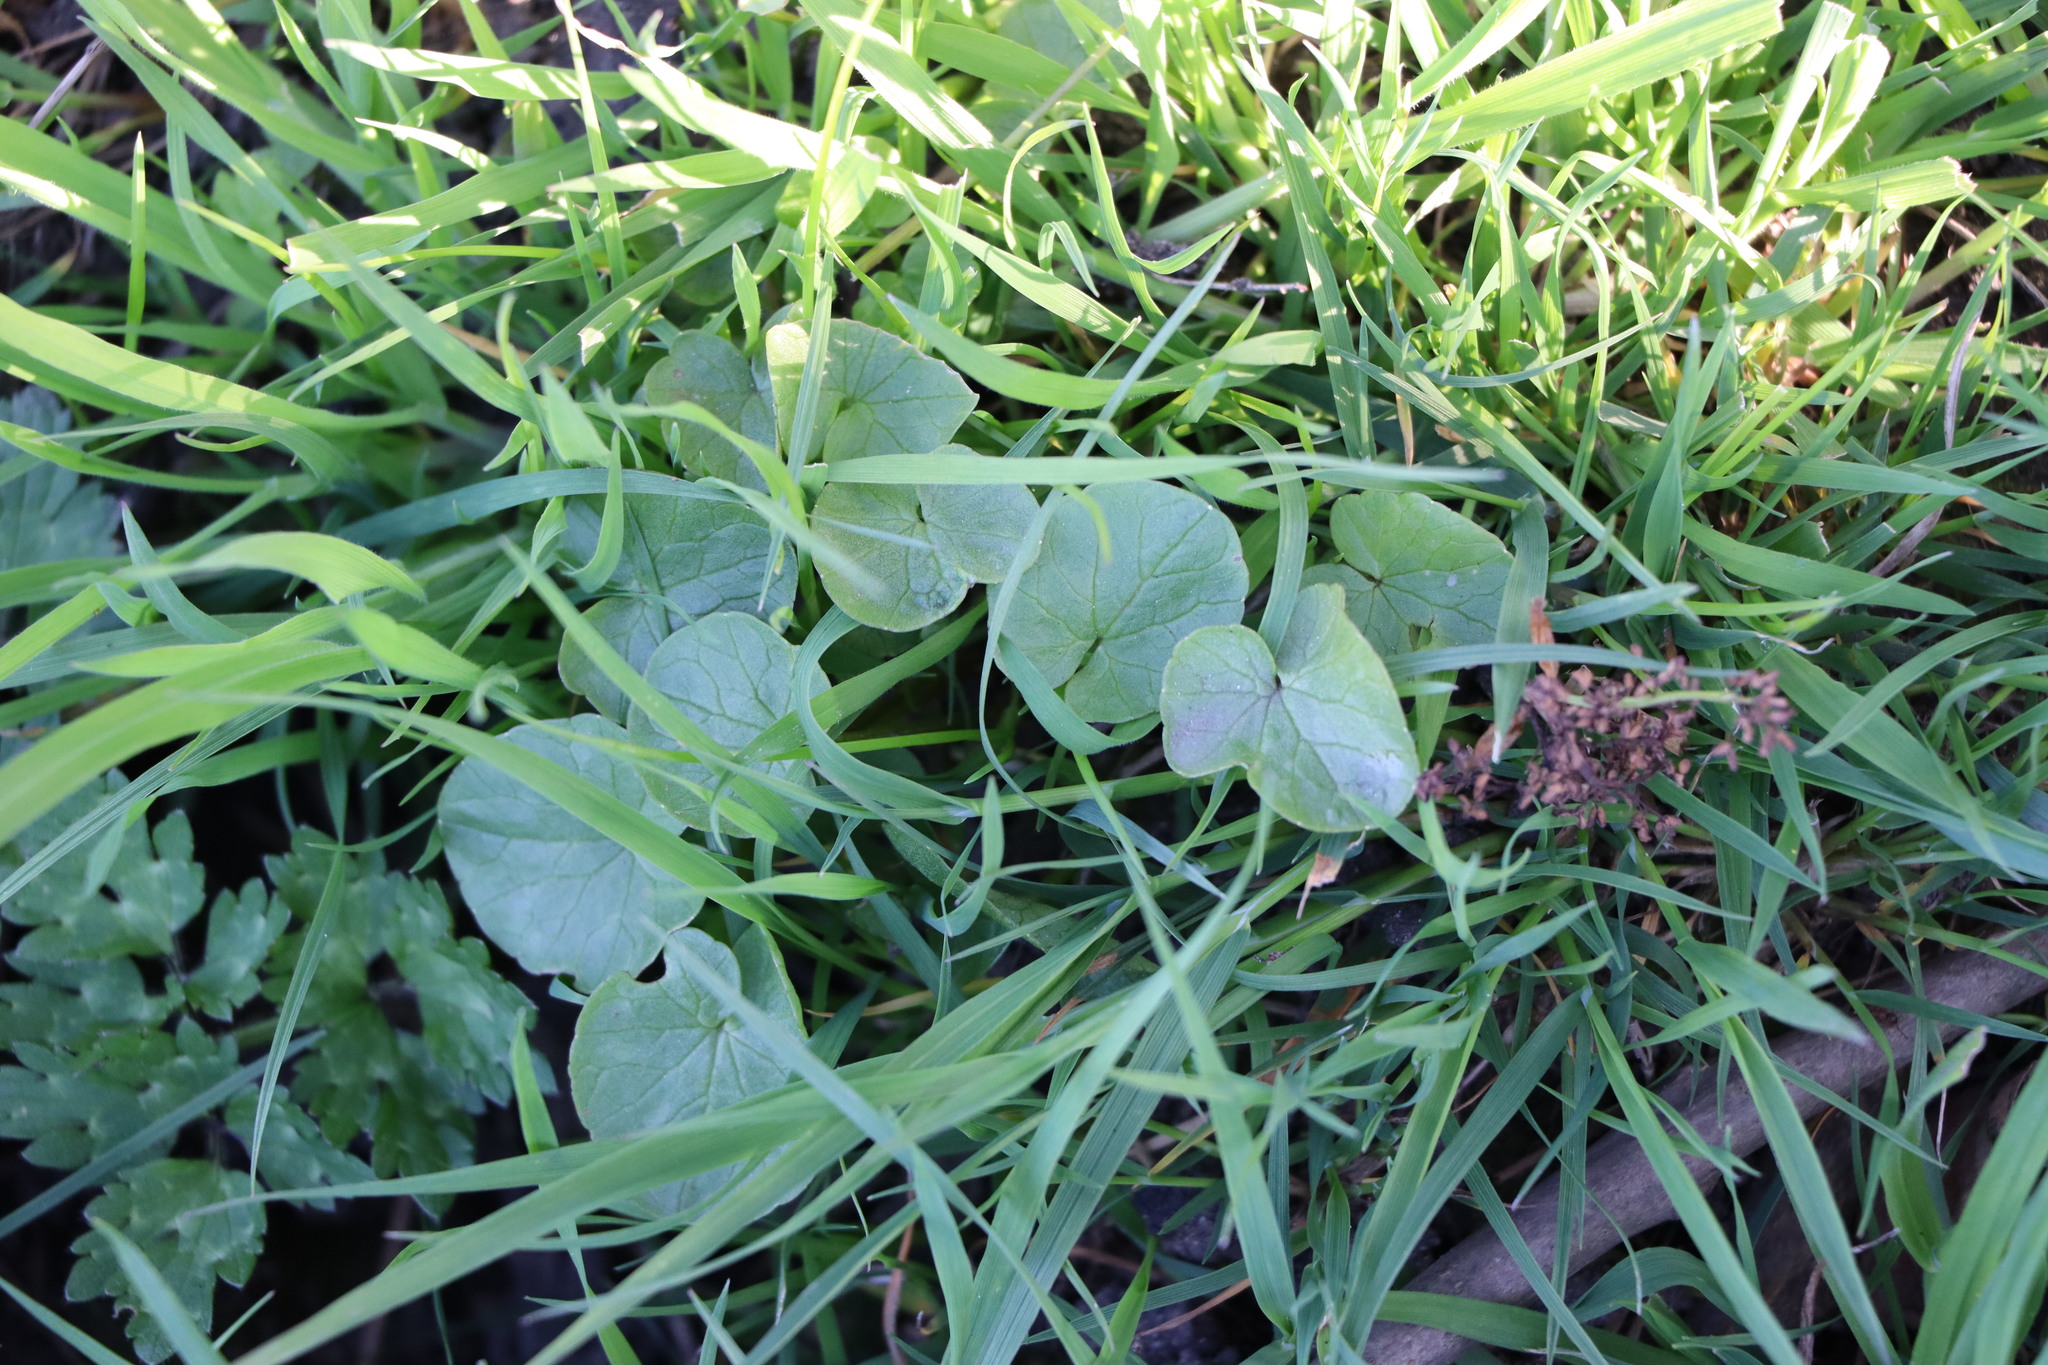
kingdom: Plantae
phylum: Tracheophyta
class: Magnoliopsida
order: Ranunculales
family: Ranunculaceae
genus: Ficaria
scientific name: Ficaria verna
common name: Lesser celandine
